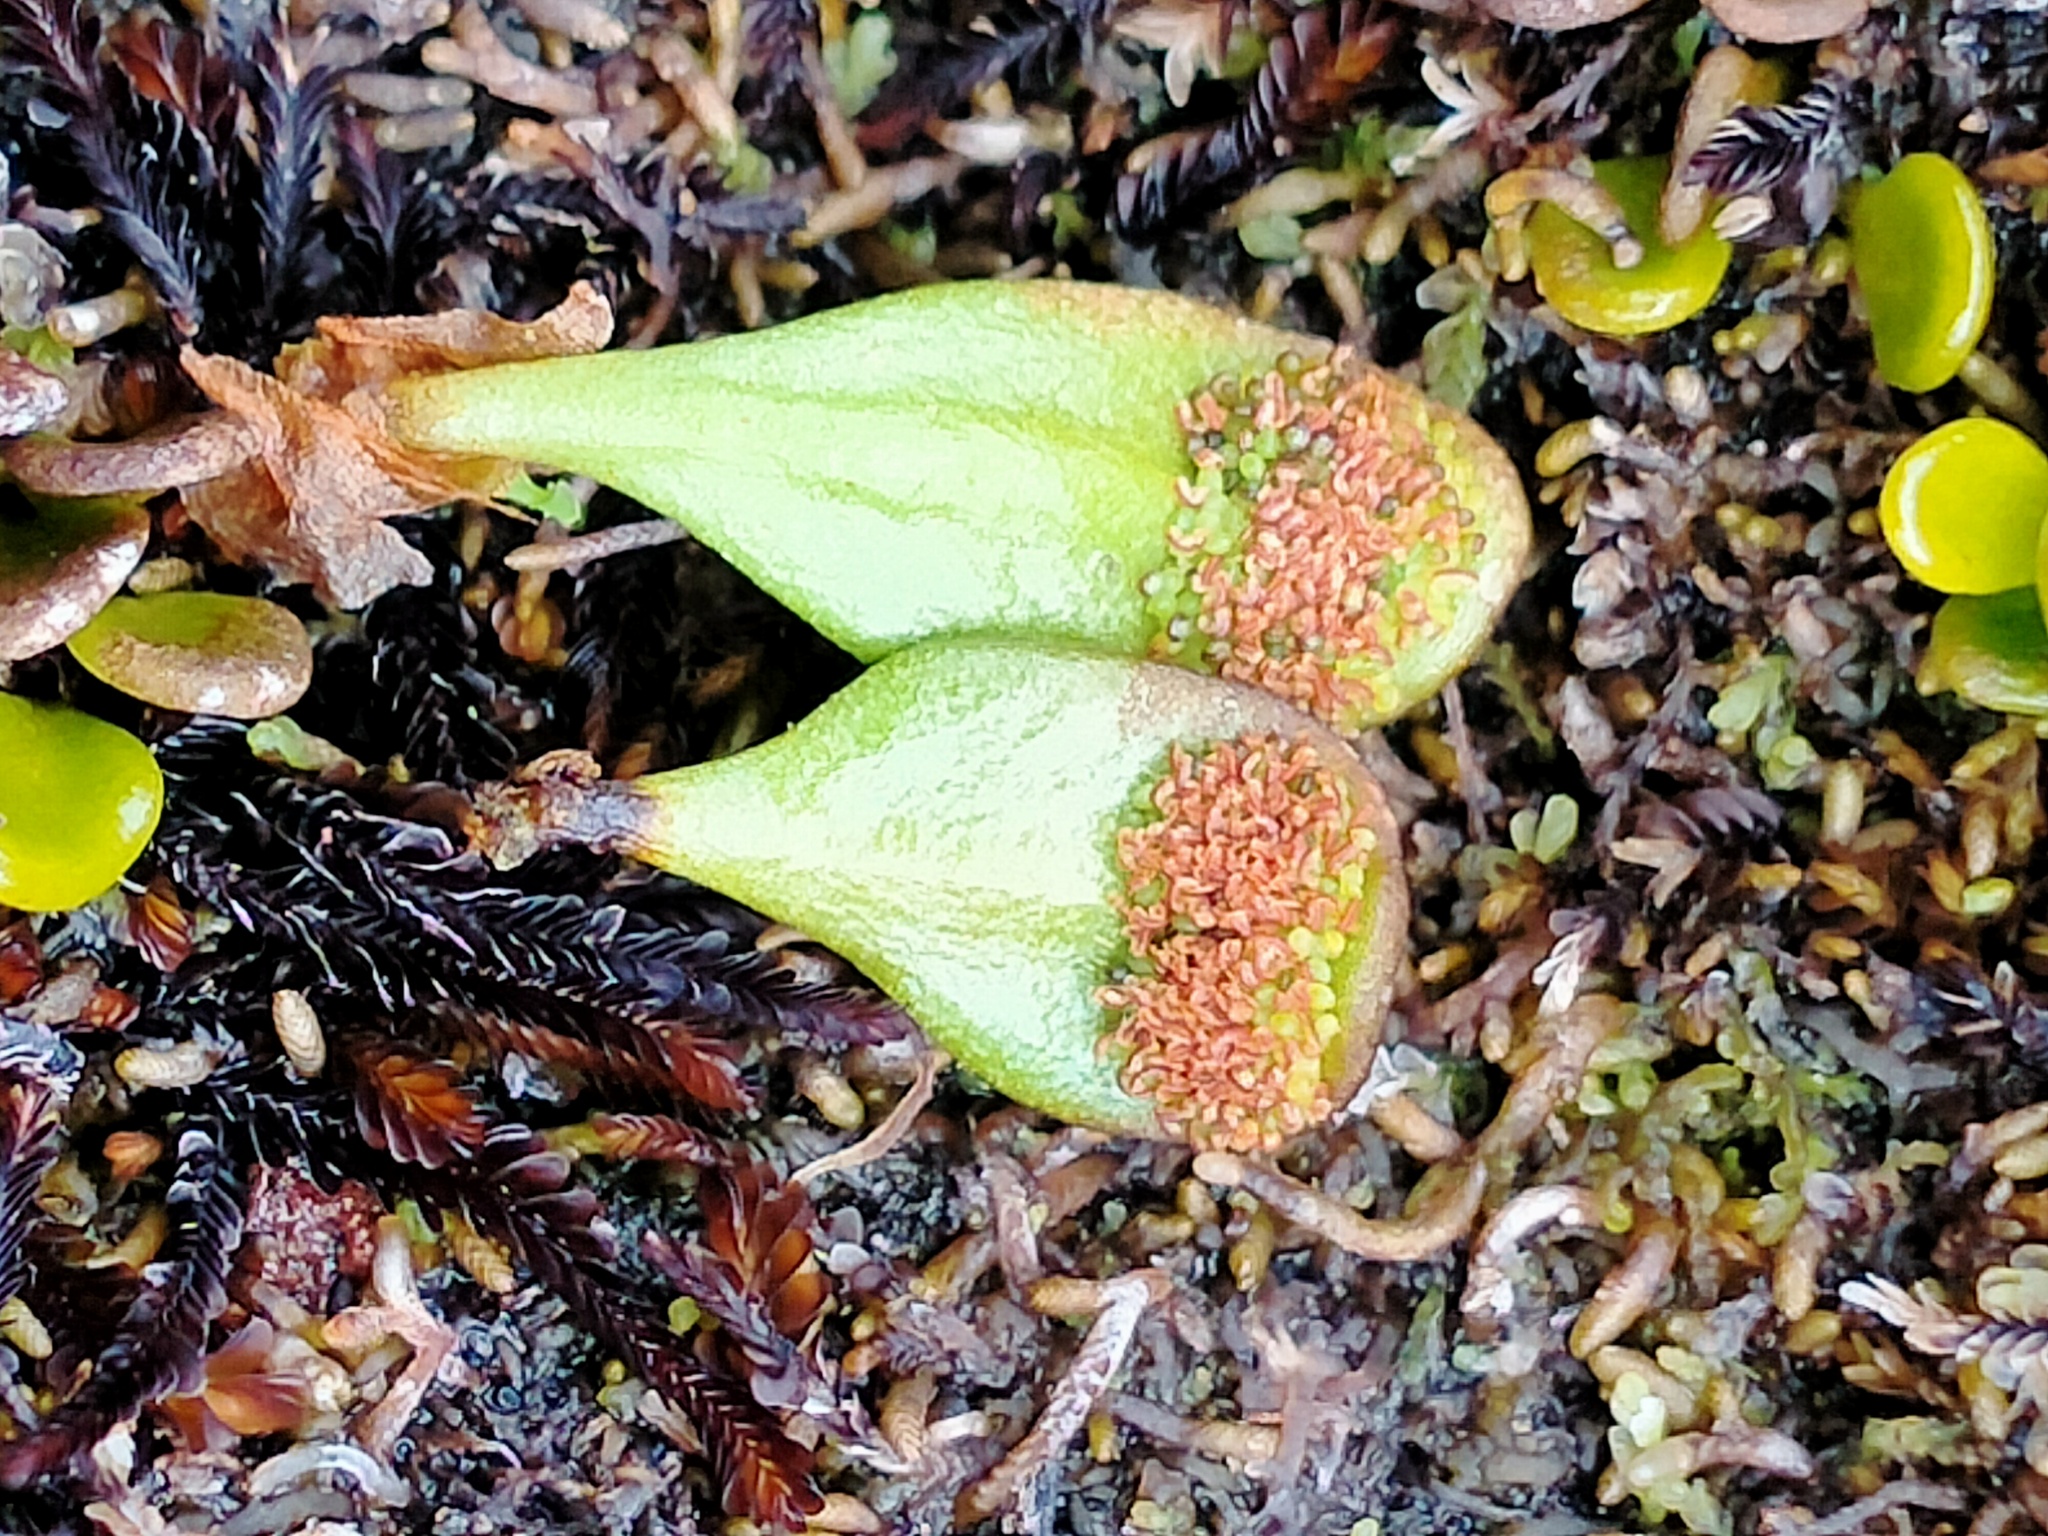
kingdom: Plantae
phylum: Tracheophyta
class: Polypodiopsida
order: Polypodiales
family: Polypodiaceae
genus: Notogrammitis
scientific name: Notogrammitis crassior
